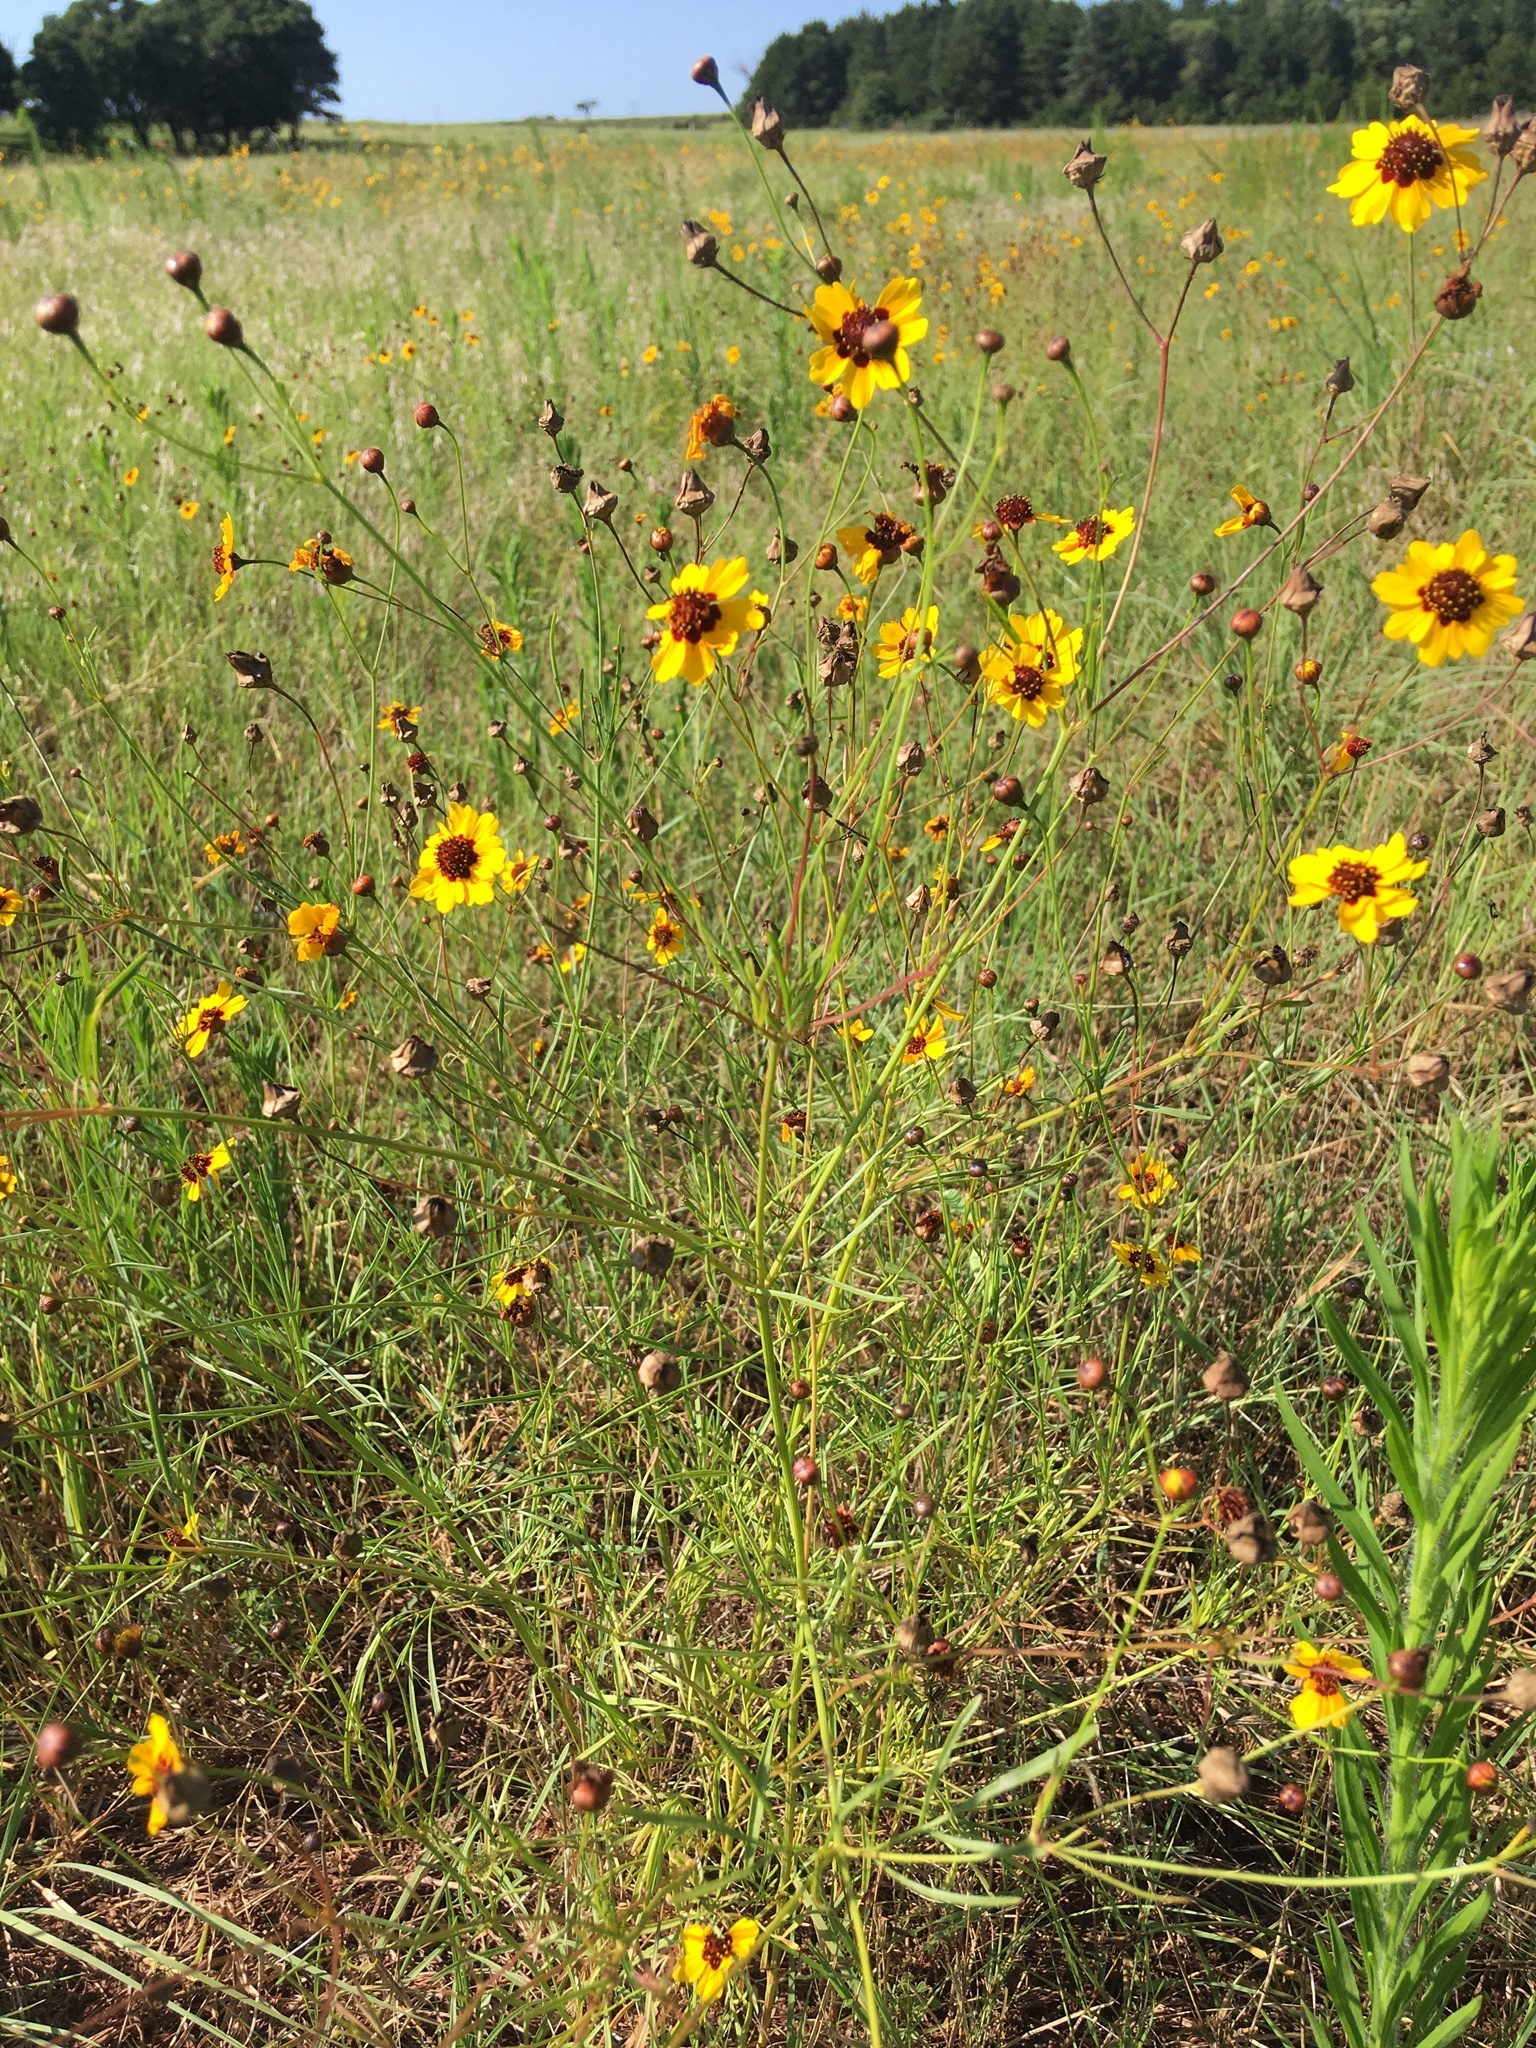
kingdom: Plantae
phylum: Tracheophyta
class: Magnoliopsida
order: Asterales
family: Asteraceae
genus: Coreopsis
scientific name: Coreopsis tinctoria
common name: Garden tickseed
